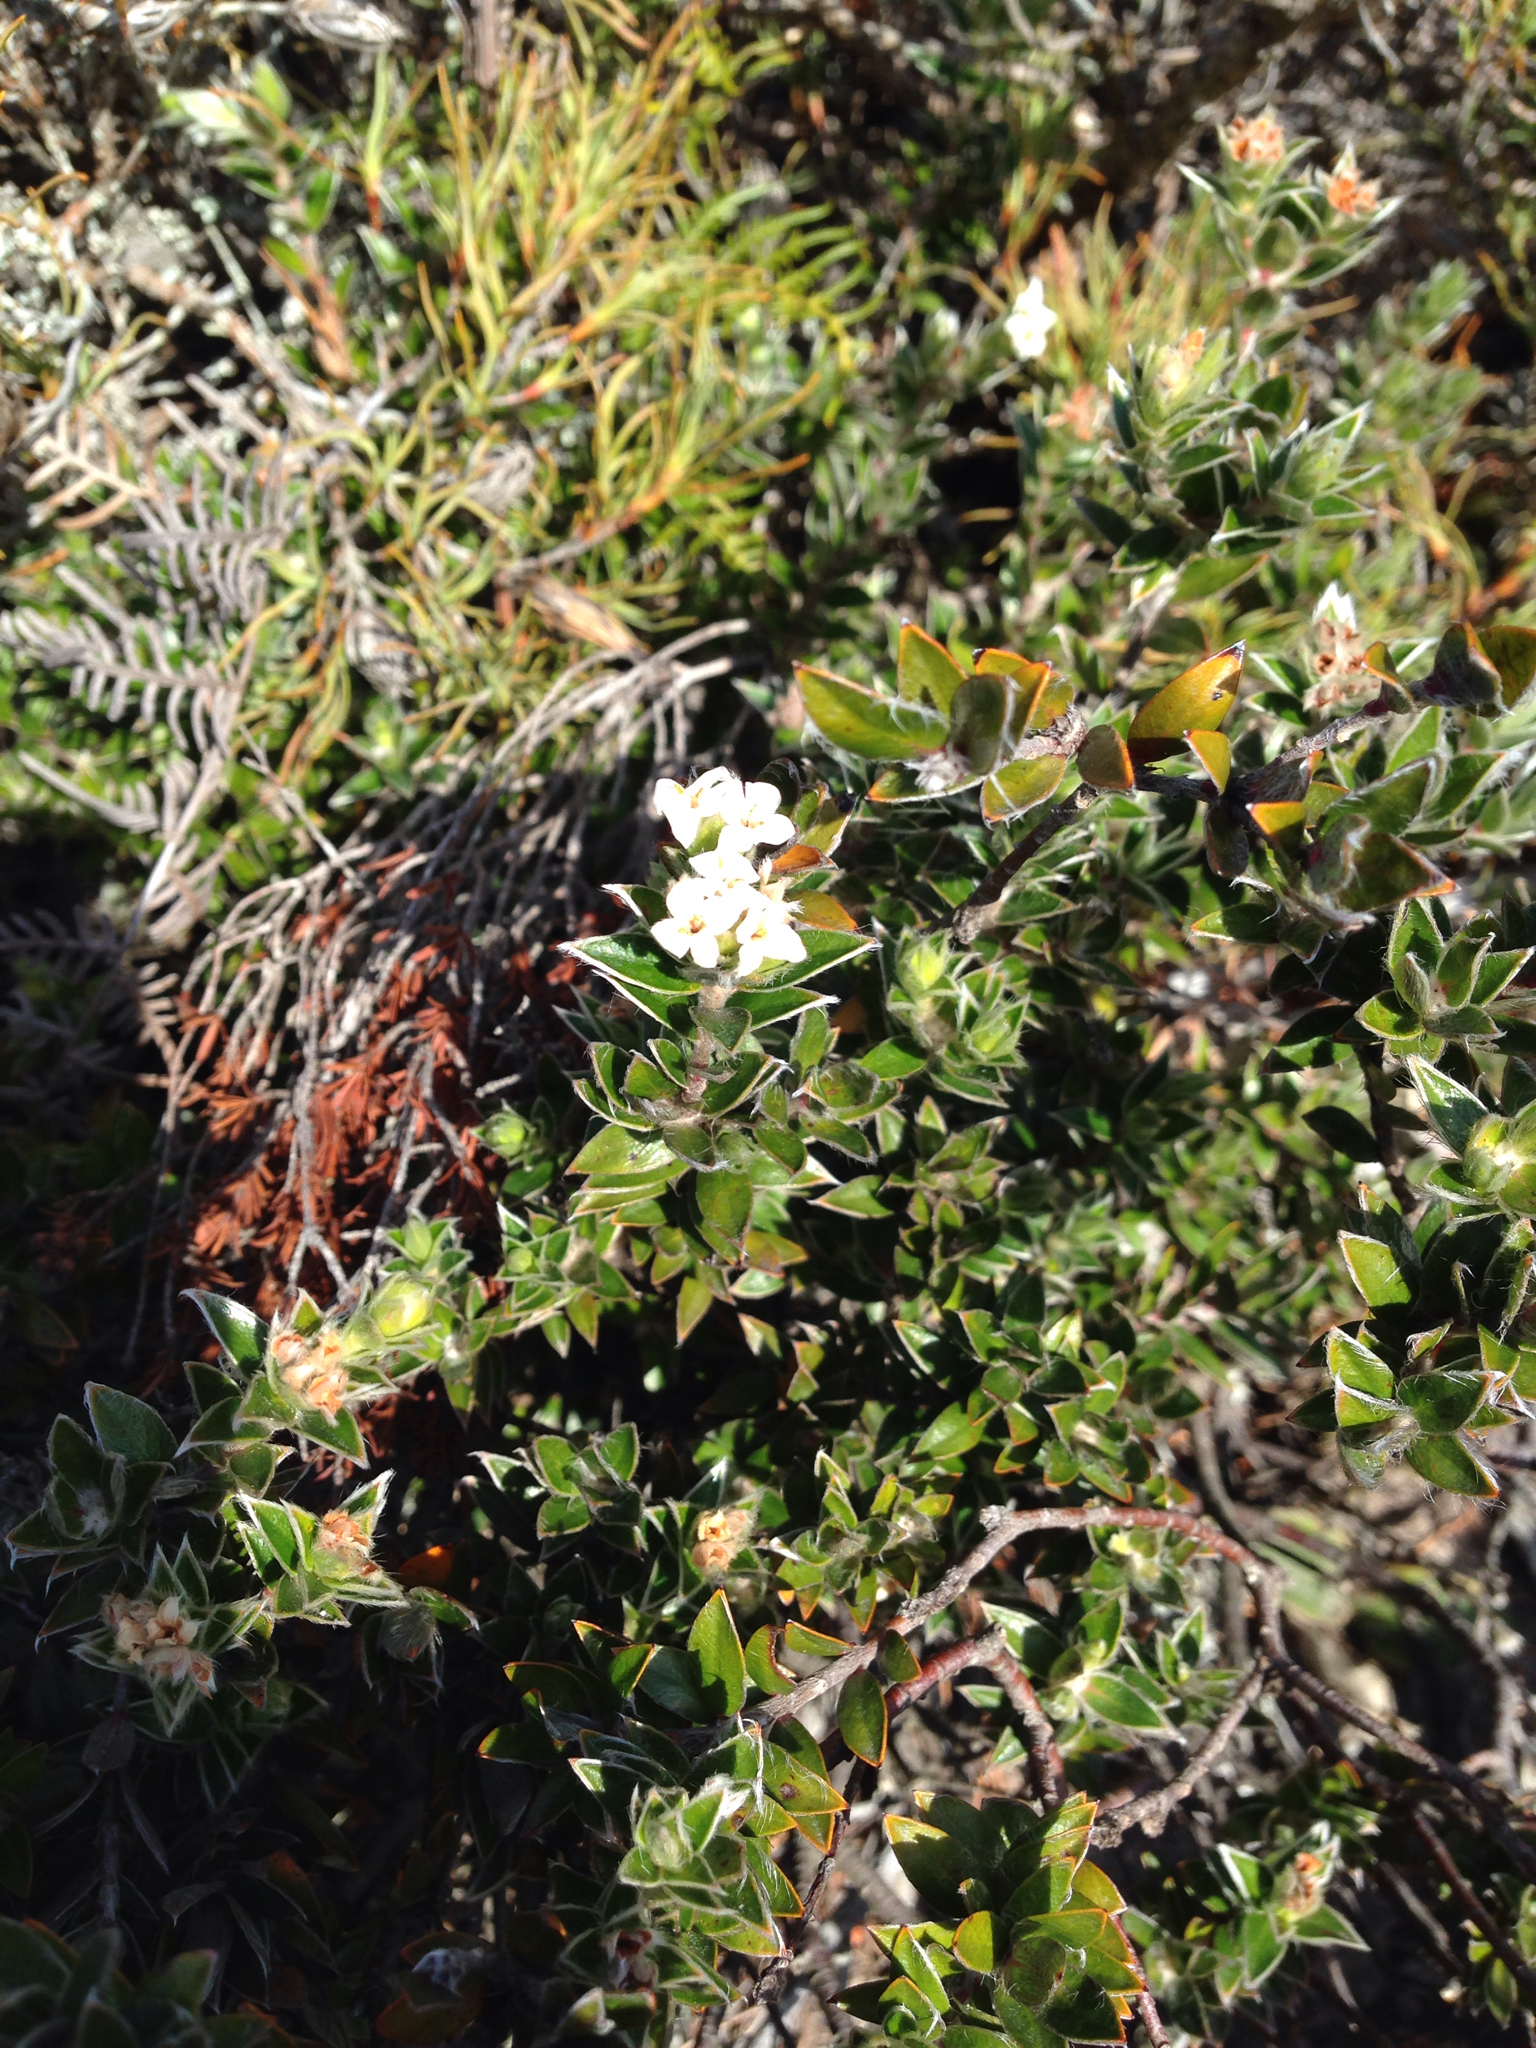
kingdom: Plantae
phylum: Tracheophyta
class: Magnoliopsida
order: Malvales
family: Thymelaeaceae
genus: Pimelea
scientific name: Pimelea pseudolyallii
